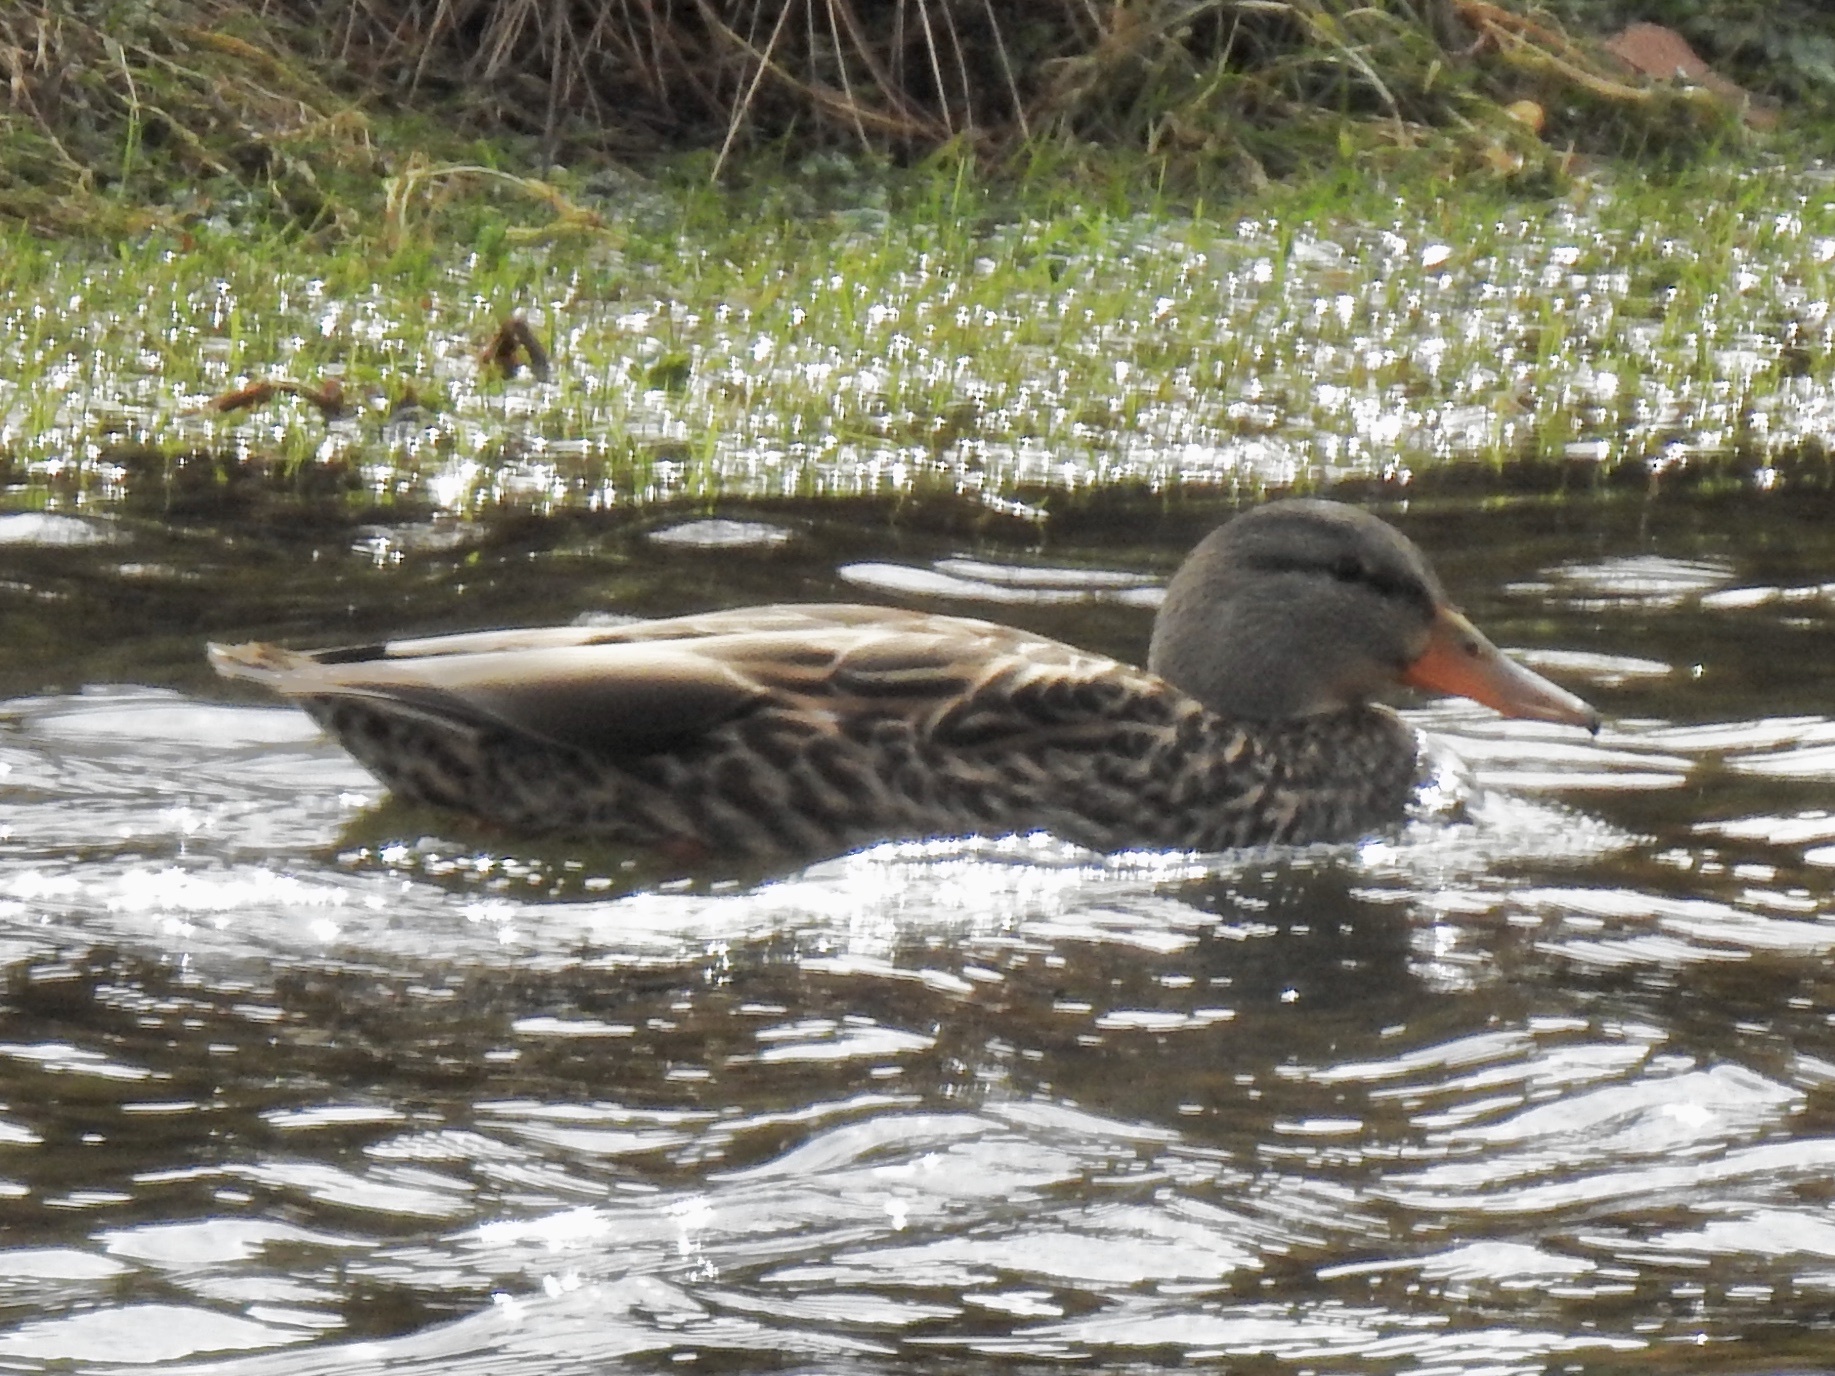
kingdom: Animalia
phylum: Chordata
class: Aves
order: Anseriformes
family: Anatidae
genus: Anas
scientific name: Anas platyrhynchos
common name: Mallard
